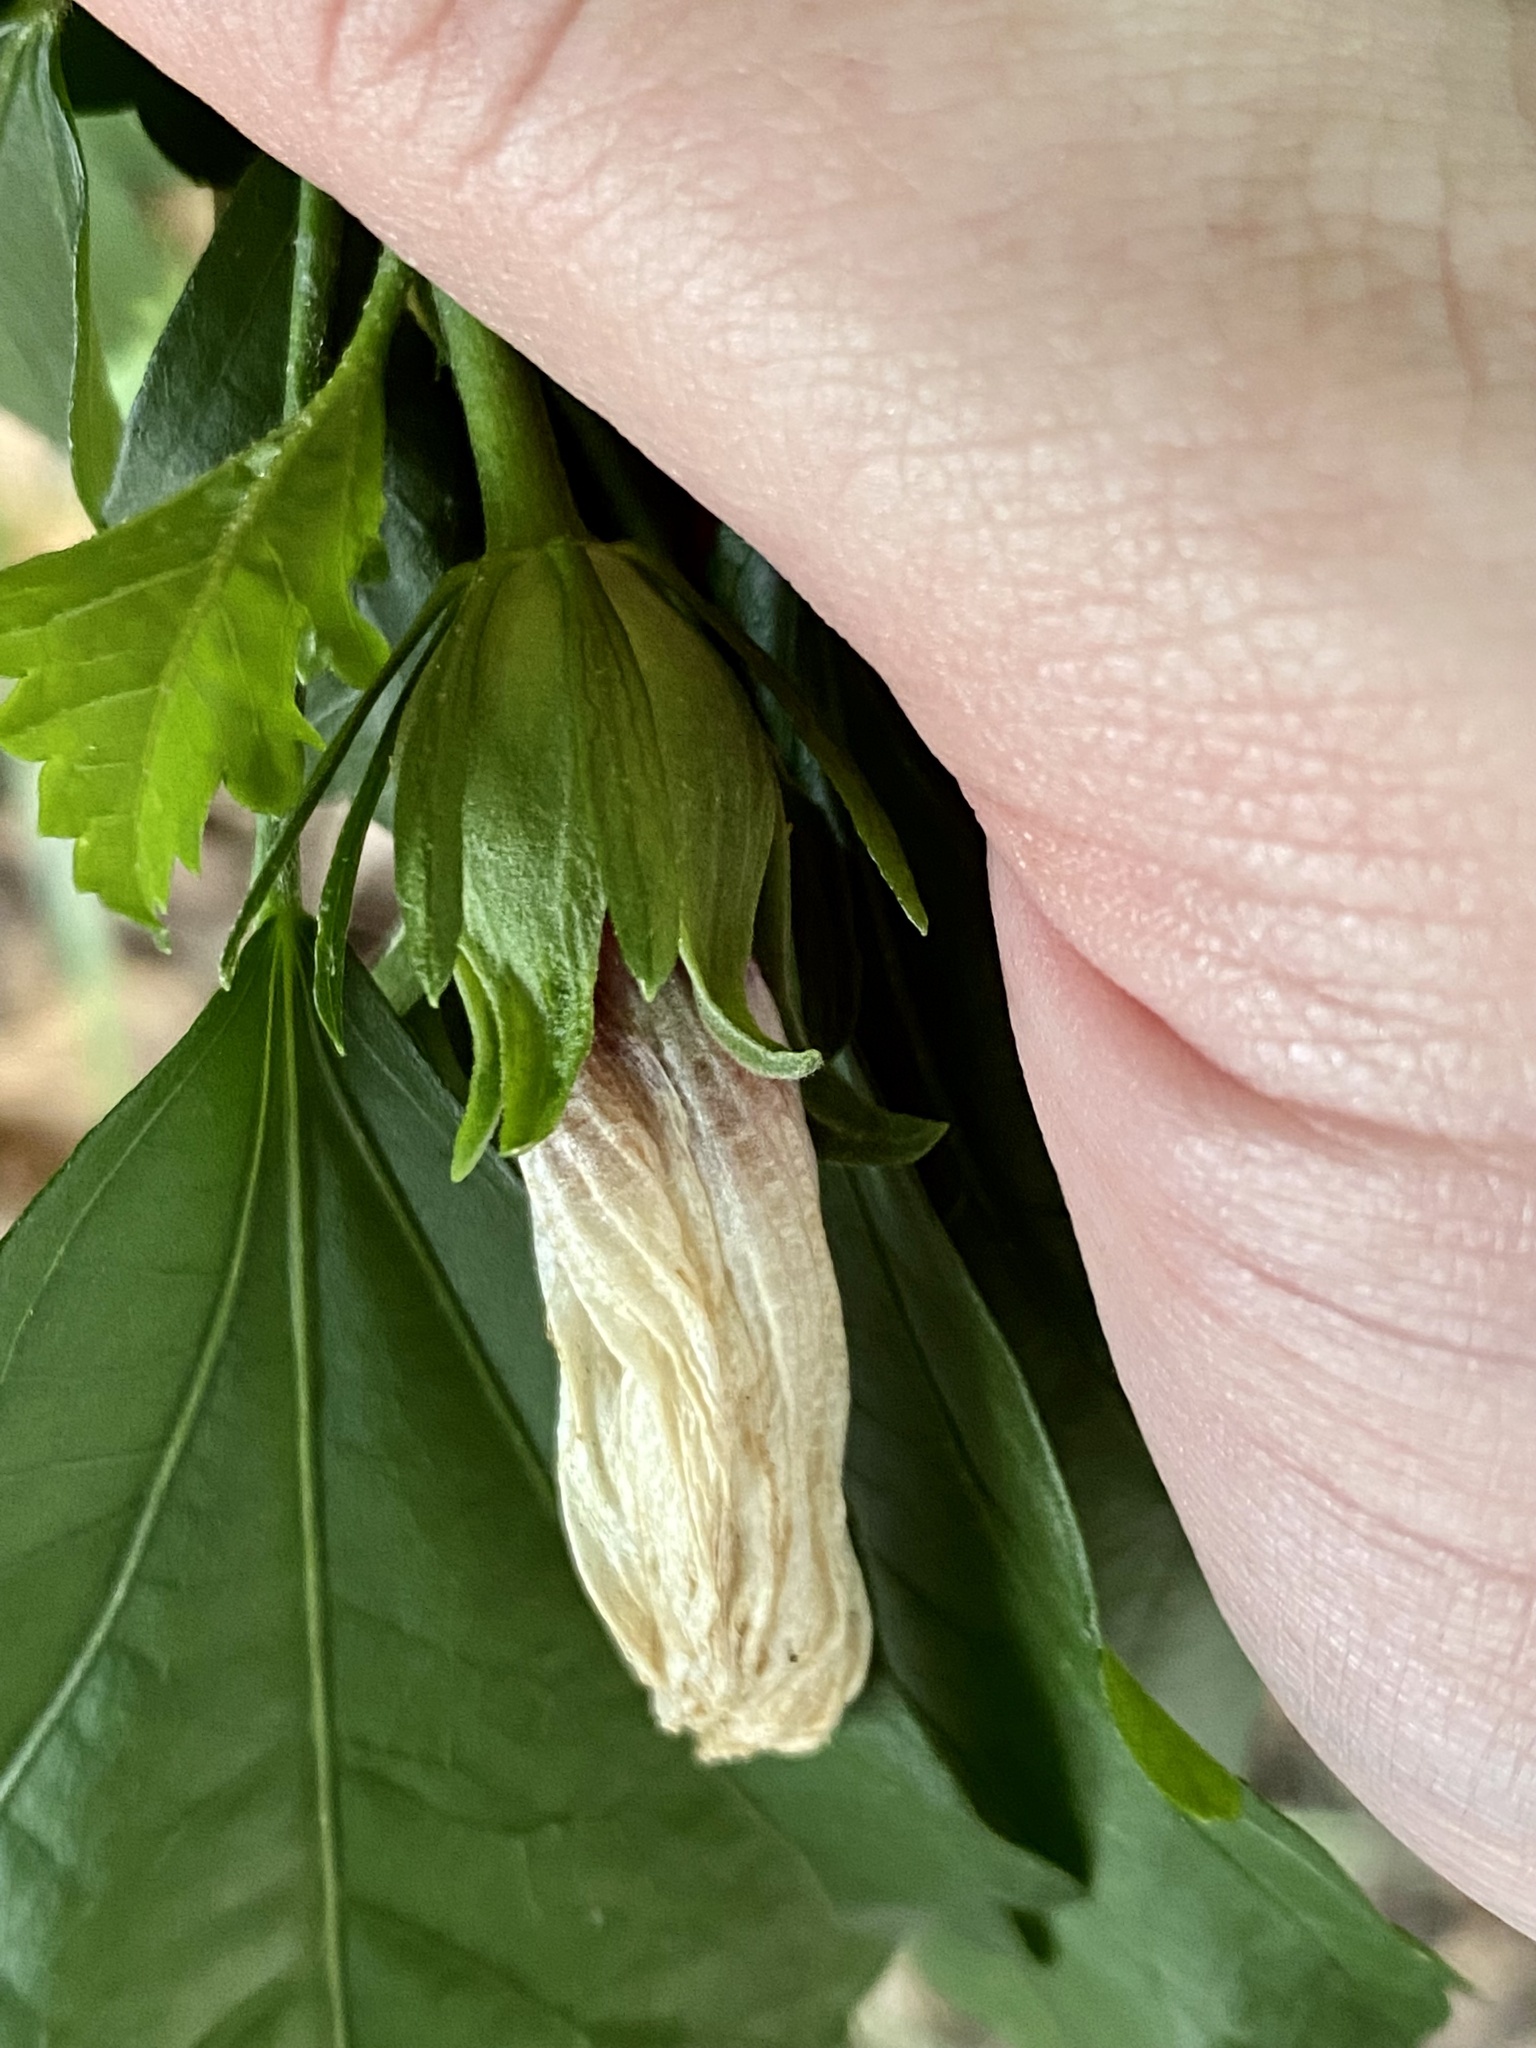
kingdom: Plantae
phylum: Tracheophyta
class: Magnoliopsida
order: Malvales
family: Malvaceae
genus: Hibiscus
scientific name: Hibiscus syriacus
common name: Syrian ketmia
